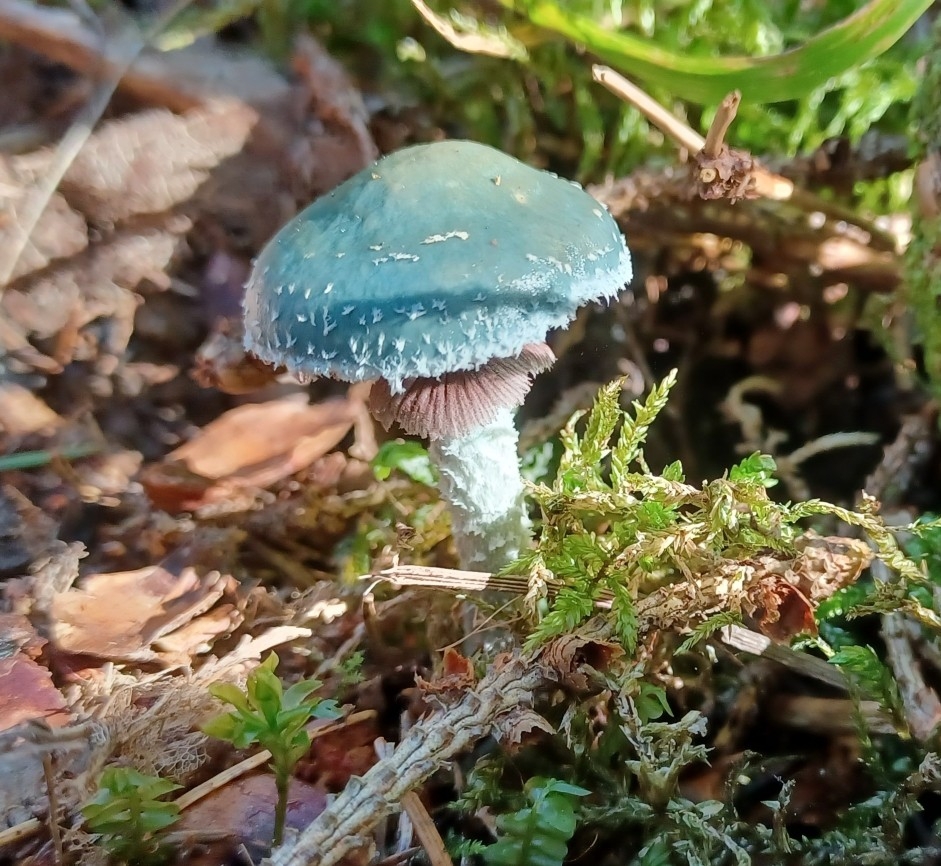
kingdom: Fungi
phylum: Basidiomycota
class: Agaricomycetes
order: Agaricales
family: Strophariaceae
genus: Stropharia
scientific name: Stropharia aeruginosa
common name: Verdigris roundhead
